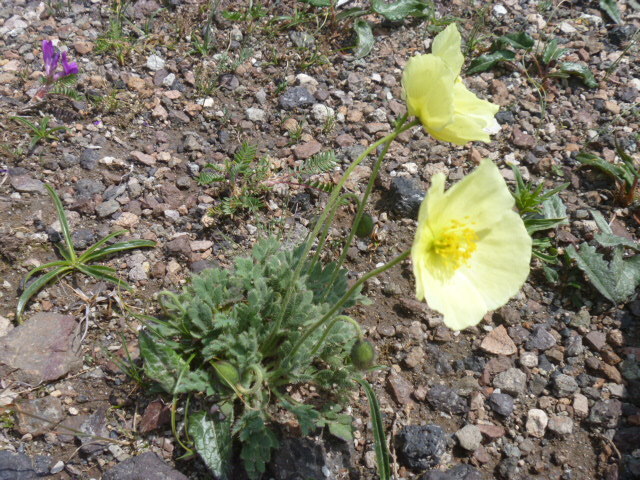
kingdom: Plantae
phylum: Tracheophyta
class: Magnoliopsida
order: Ranunculales
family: Papaveraceae
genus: Papaver
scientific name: Papaver pseudoradicatum
